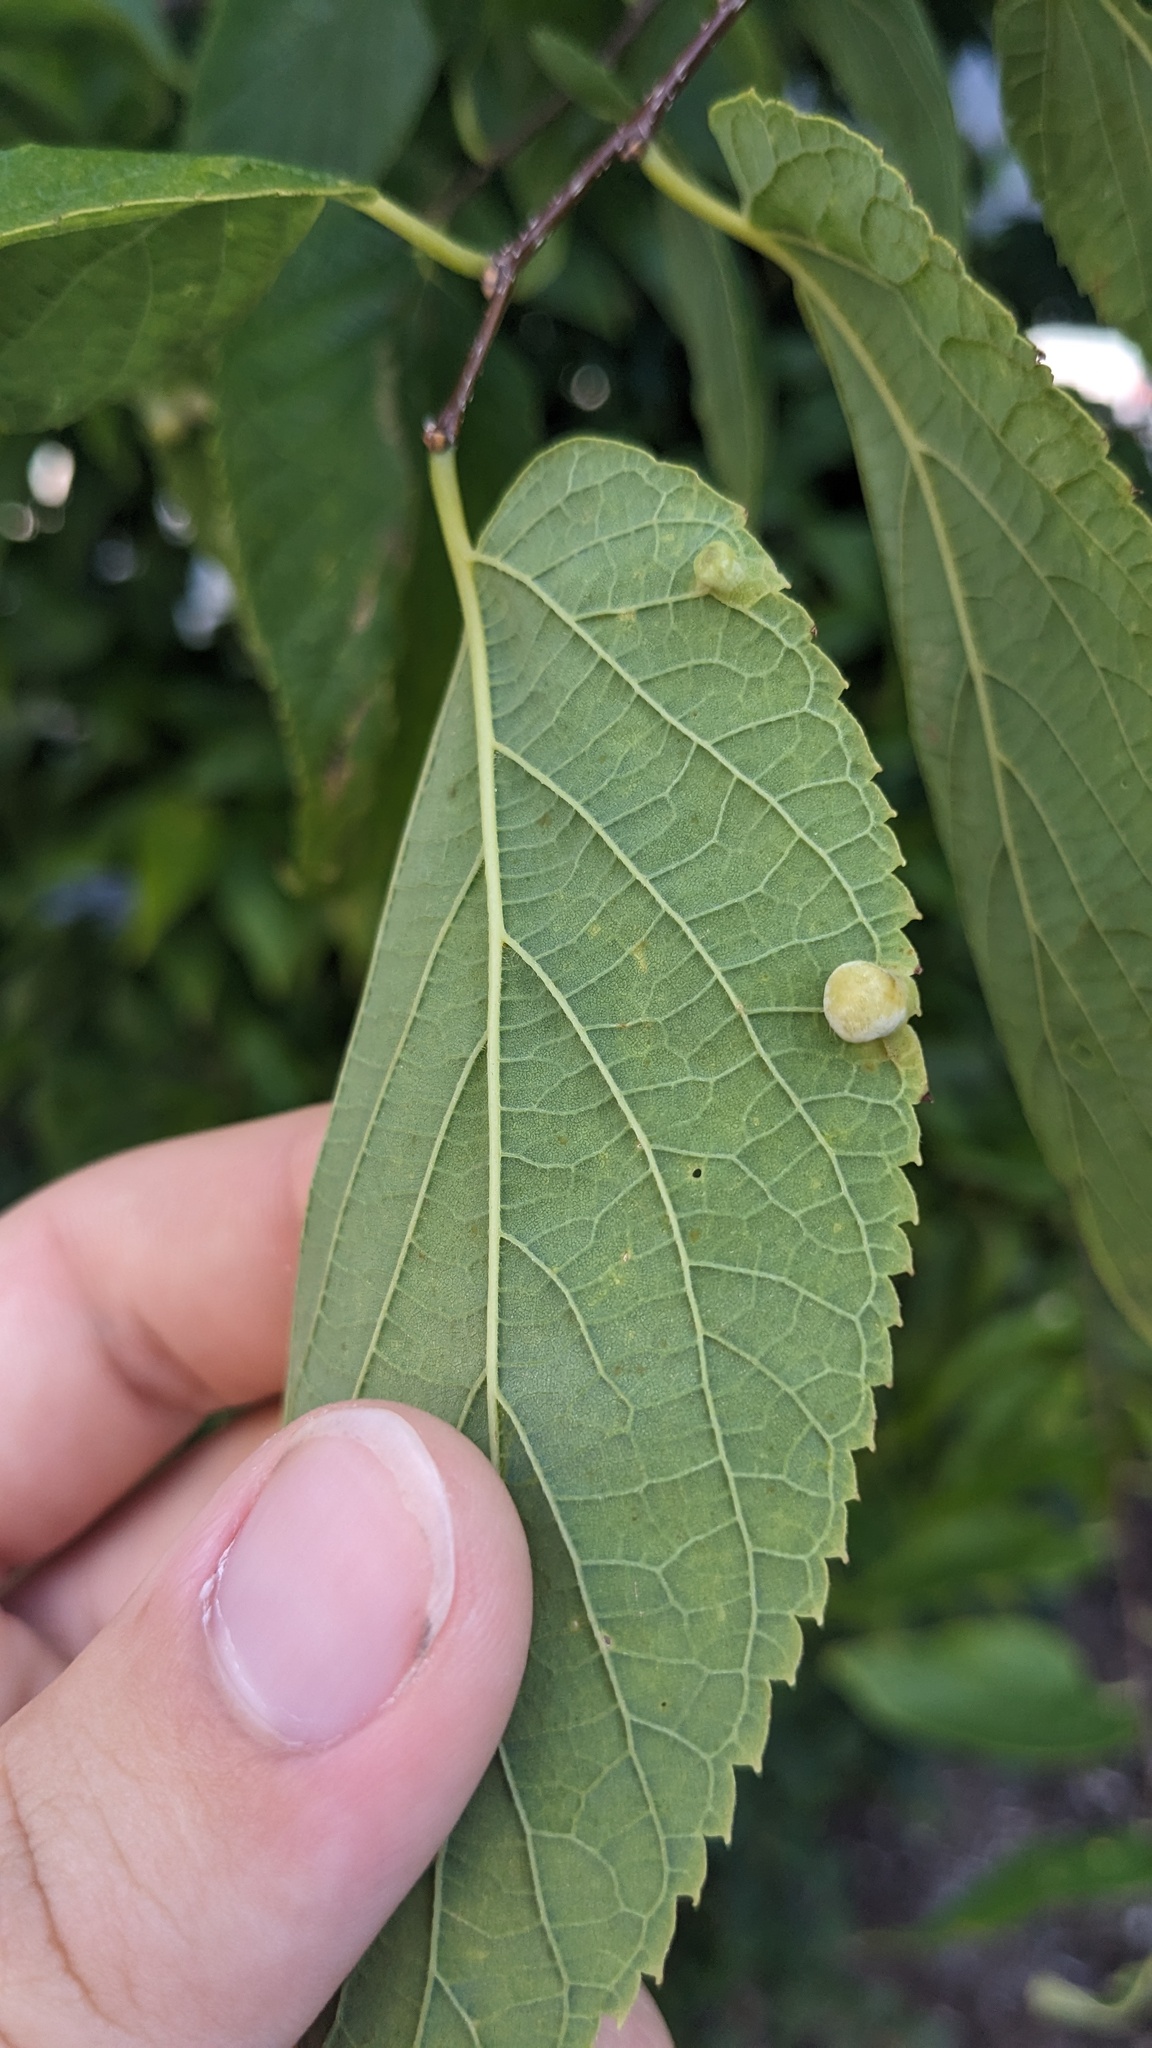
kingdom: Animalia
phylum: Arthropoda
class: Insecta
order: Hemiptera
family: Aphalaridae
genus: Pachypsylla
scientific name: Pachypsylla celtidismamma
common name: Hackberry nipplegall psyllid
